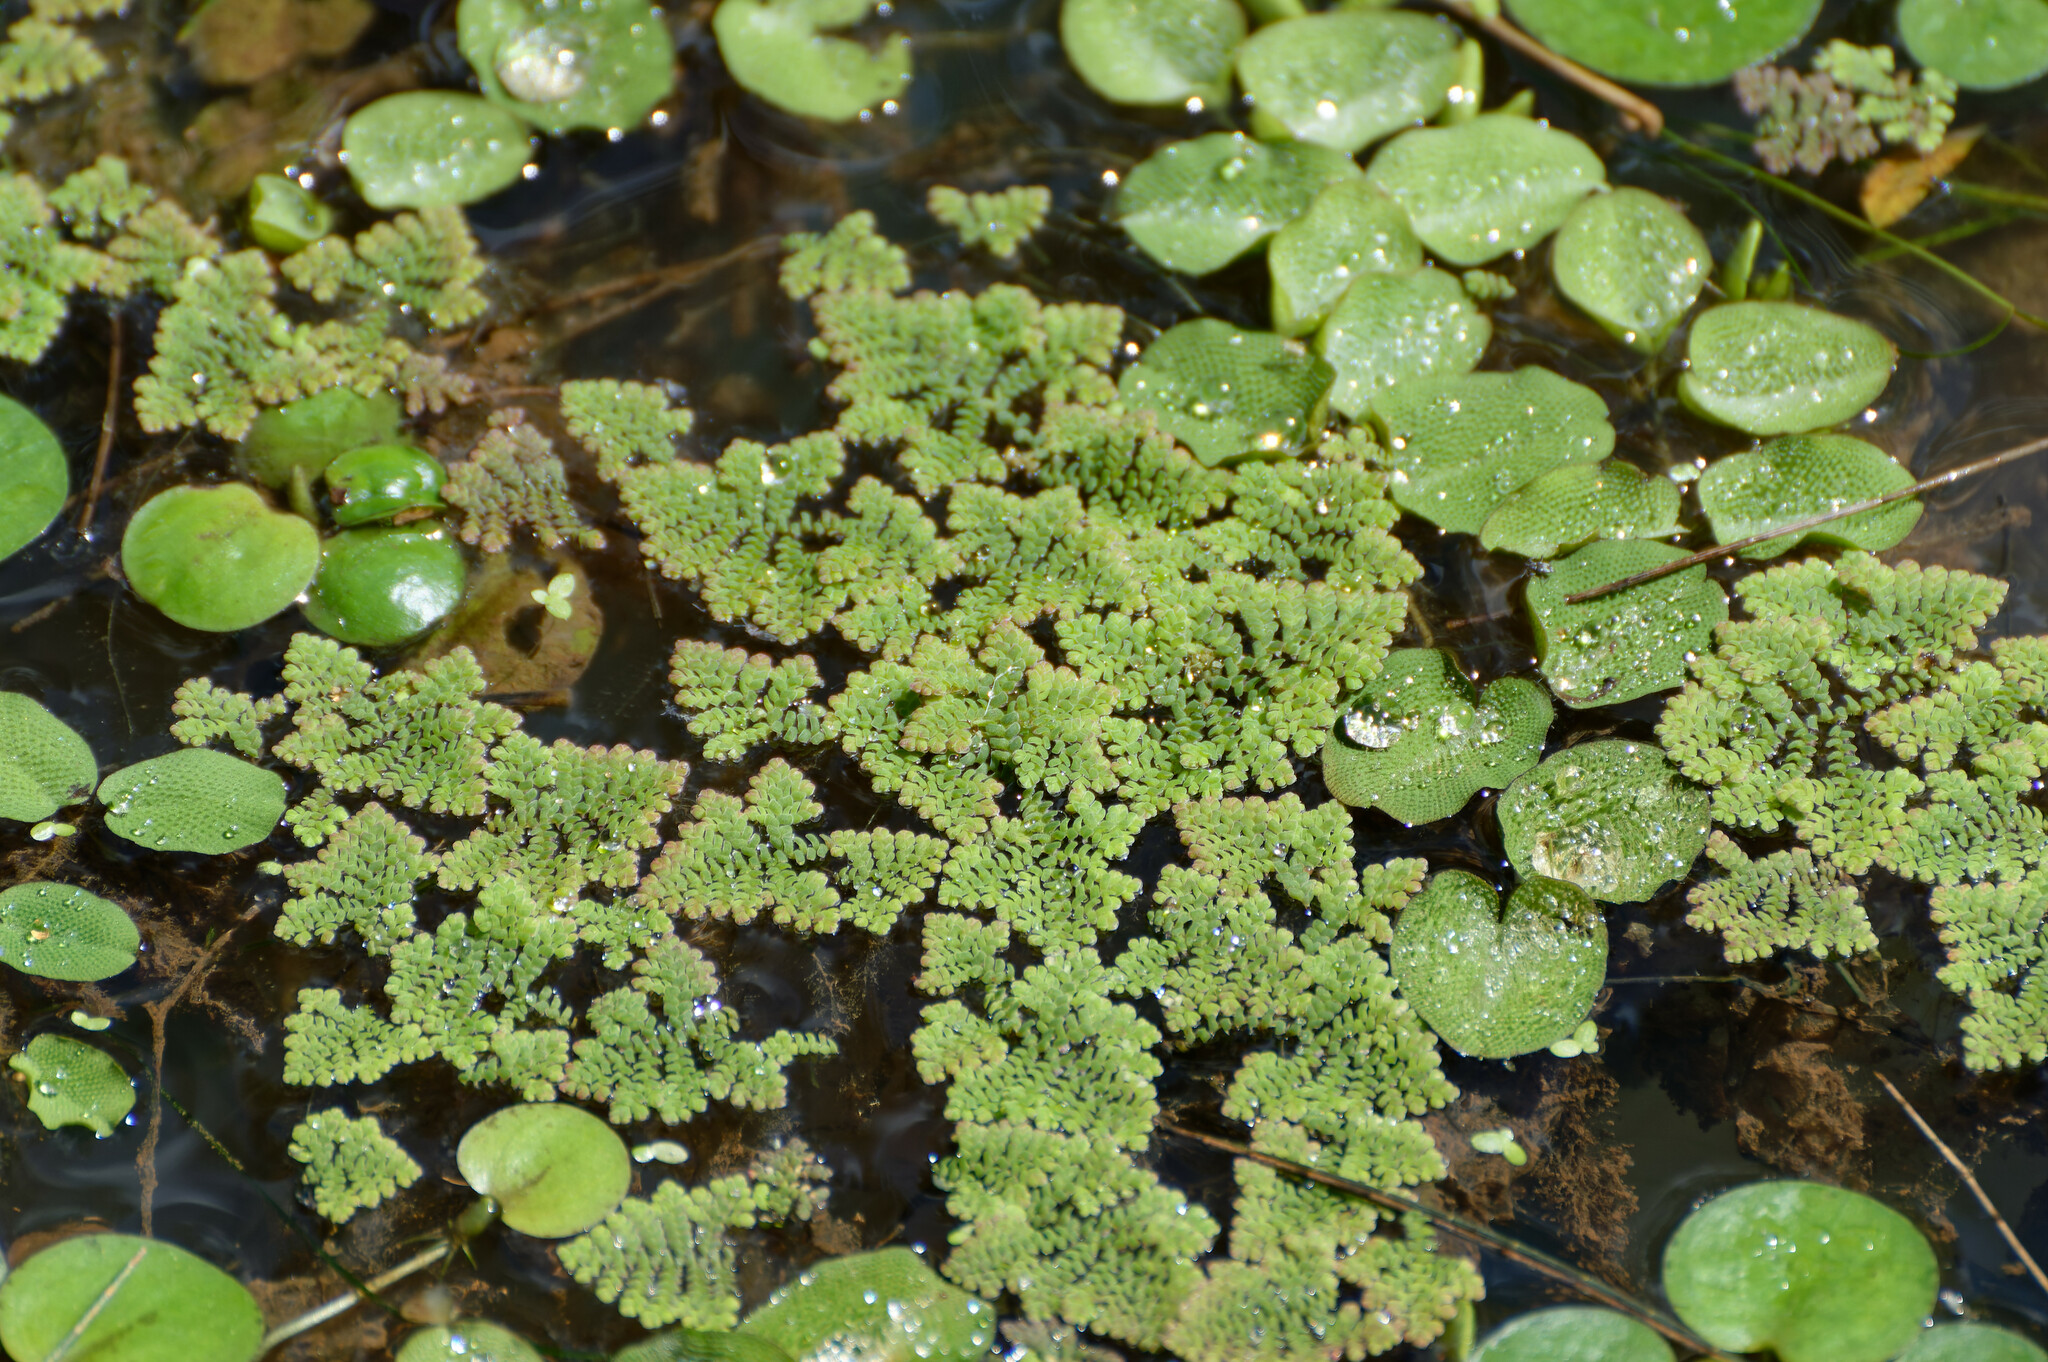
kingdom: Plantae
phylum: Tracheophyta
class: Polypodiopsida
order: Salviniales
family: Salviniaceae
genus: Azolla
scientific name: Azolla pinnata
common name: Ferny azolla
